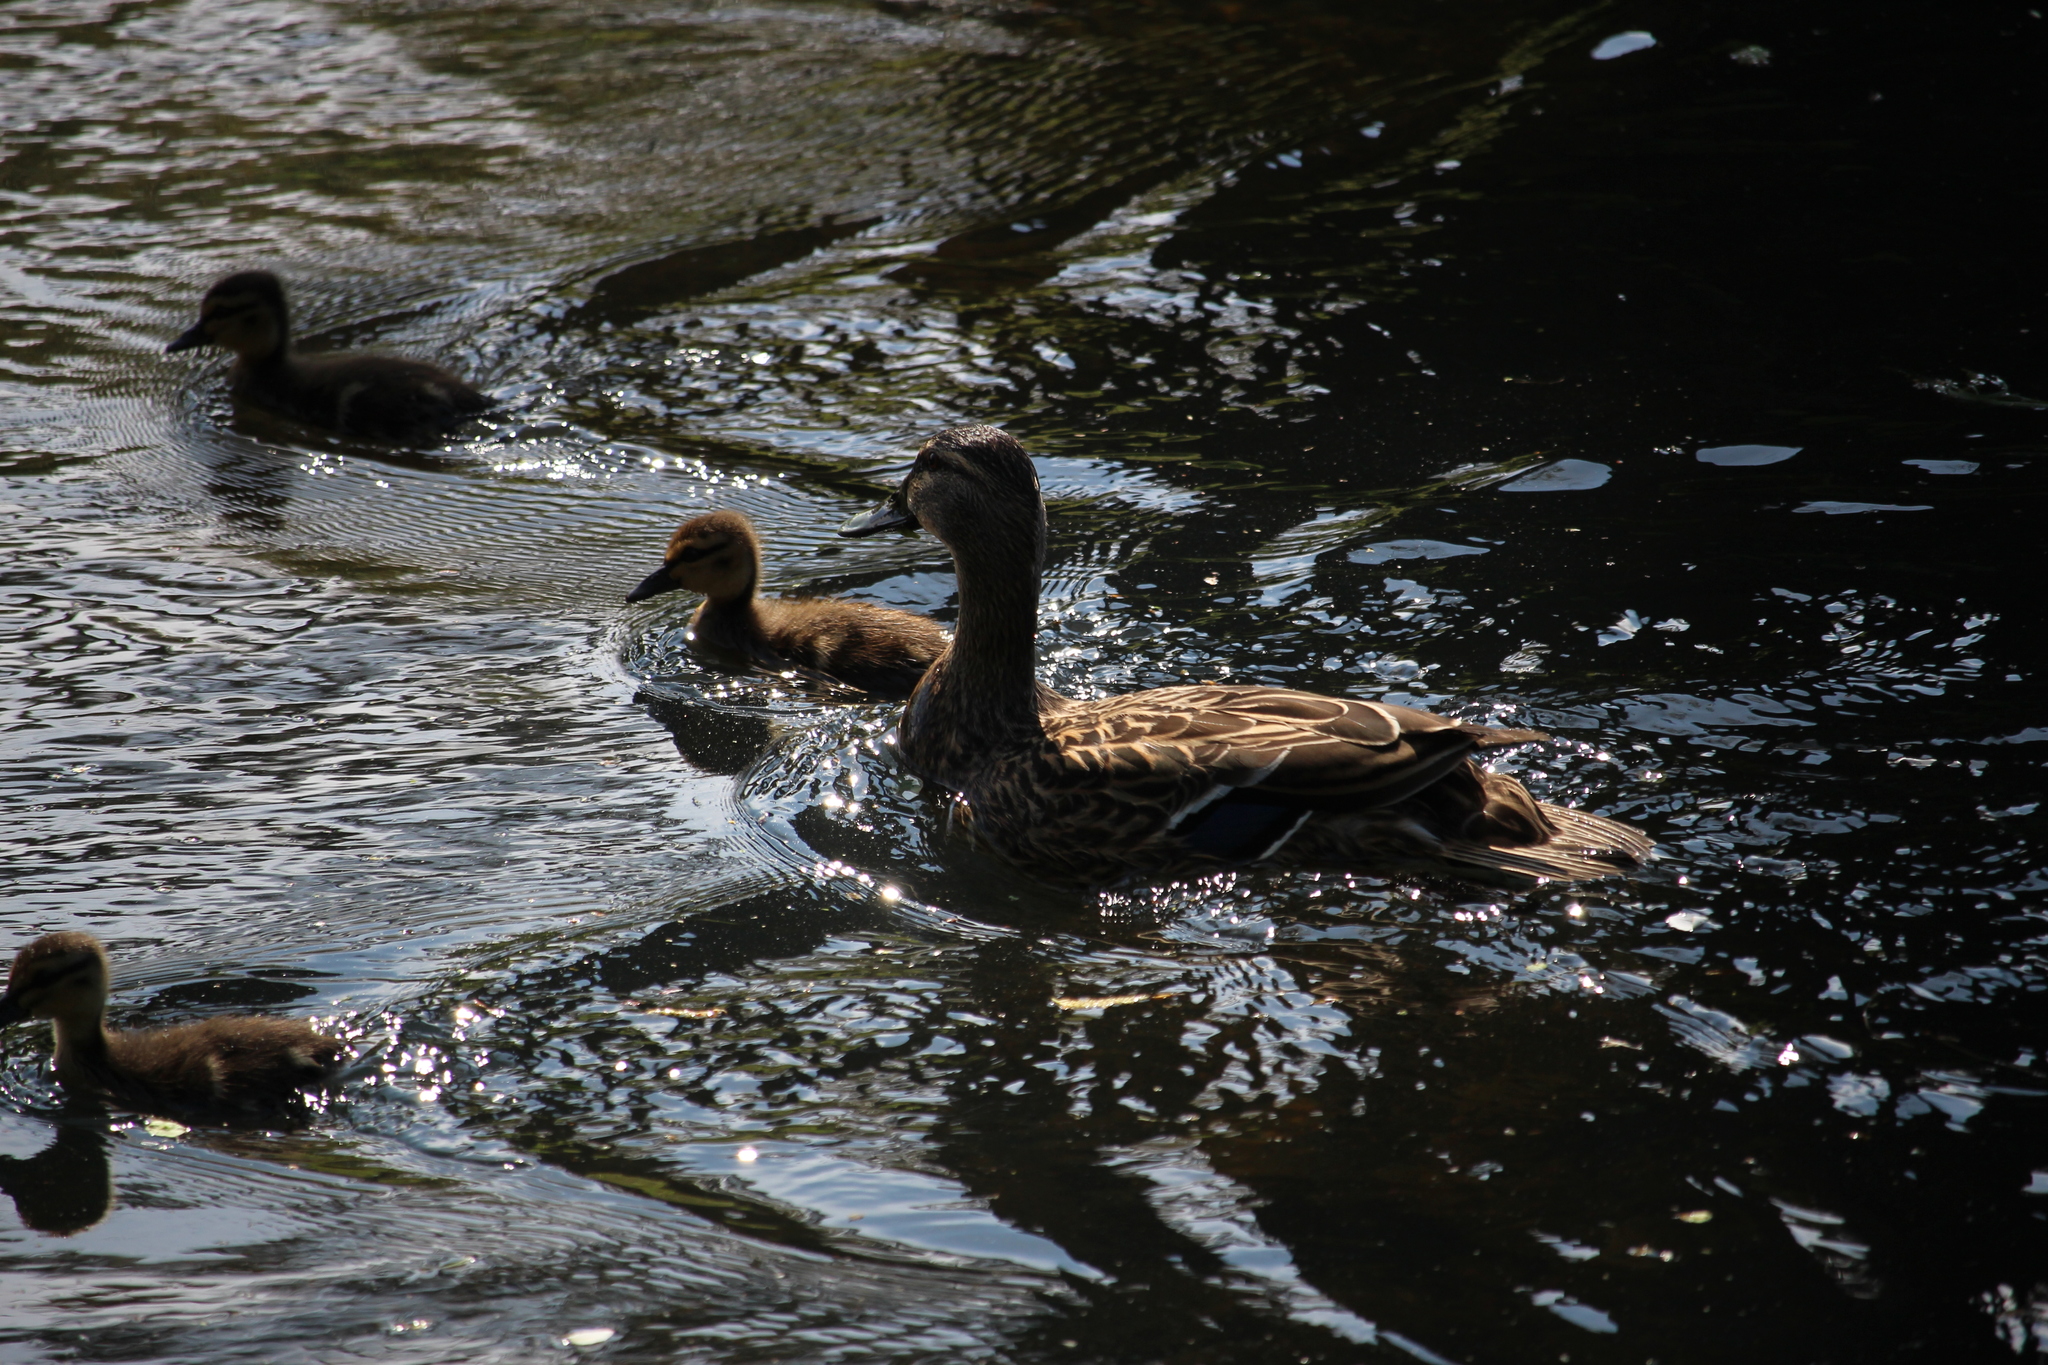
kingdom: Animalia
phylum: Chordata
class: Aves
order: Anseriformes
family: Anatidae
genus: Anas
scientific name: Anas
